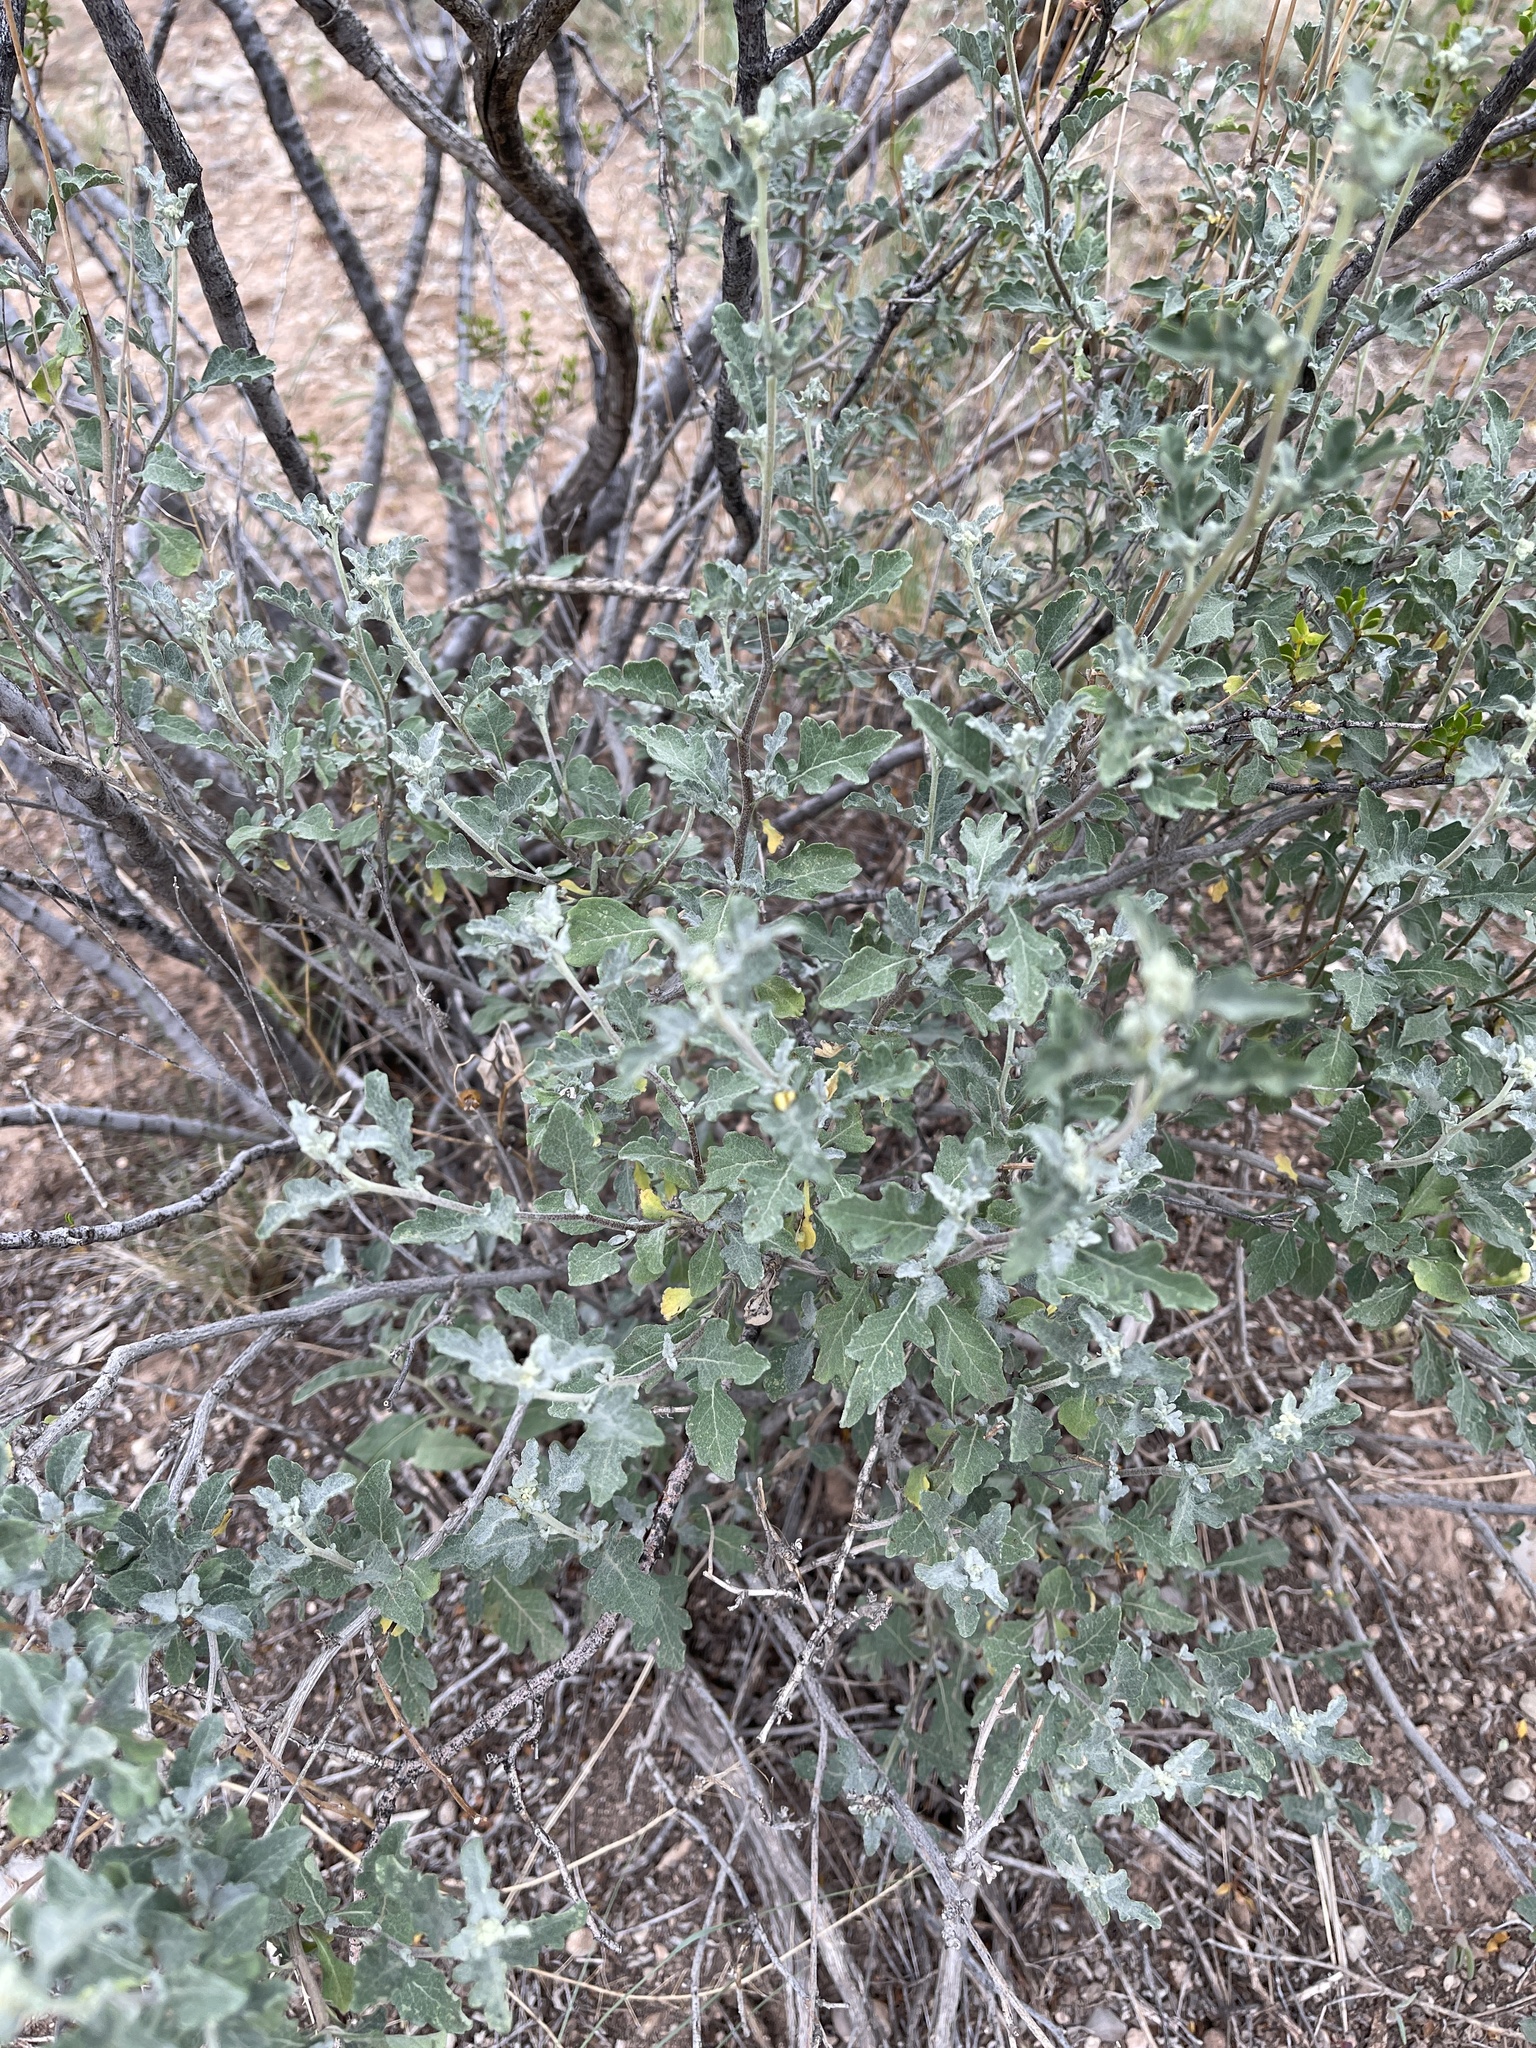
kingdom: Plantae
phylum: Tracheophyta
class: Magnoliopsida
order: Asterales
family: Asteraceae
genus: Parthenium
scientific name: Parthenium incanum
